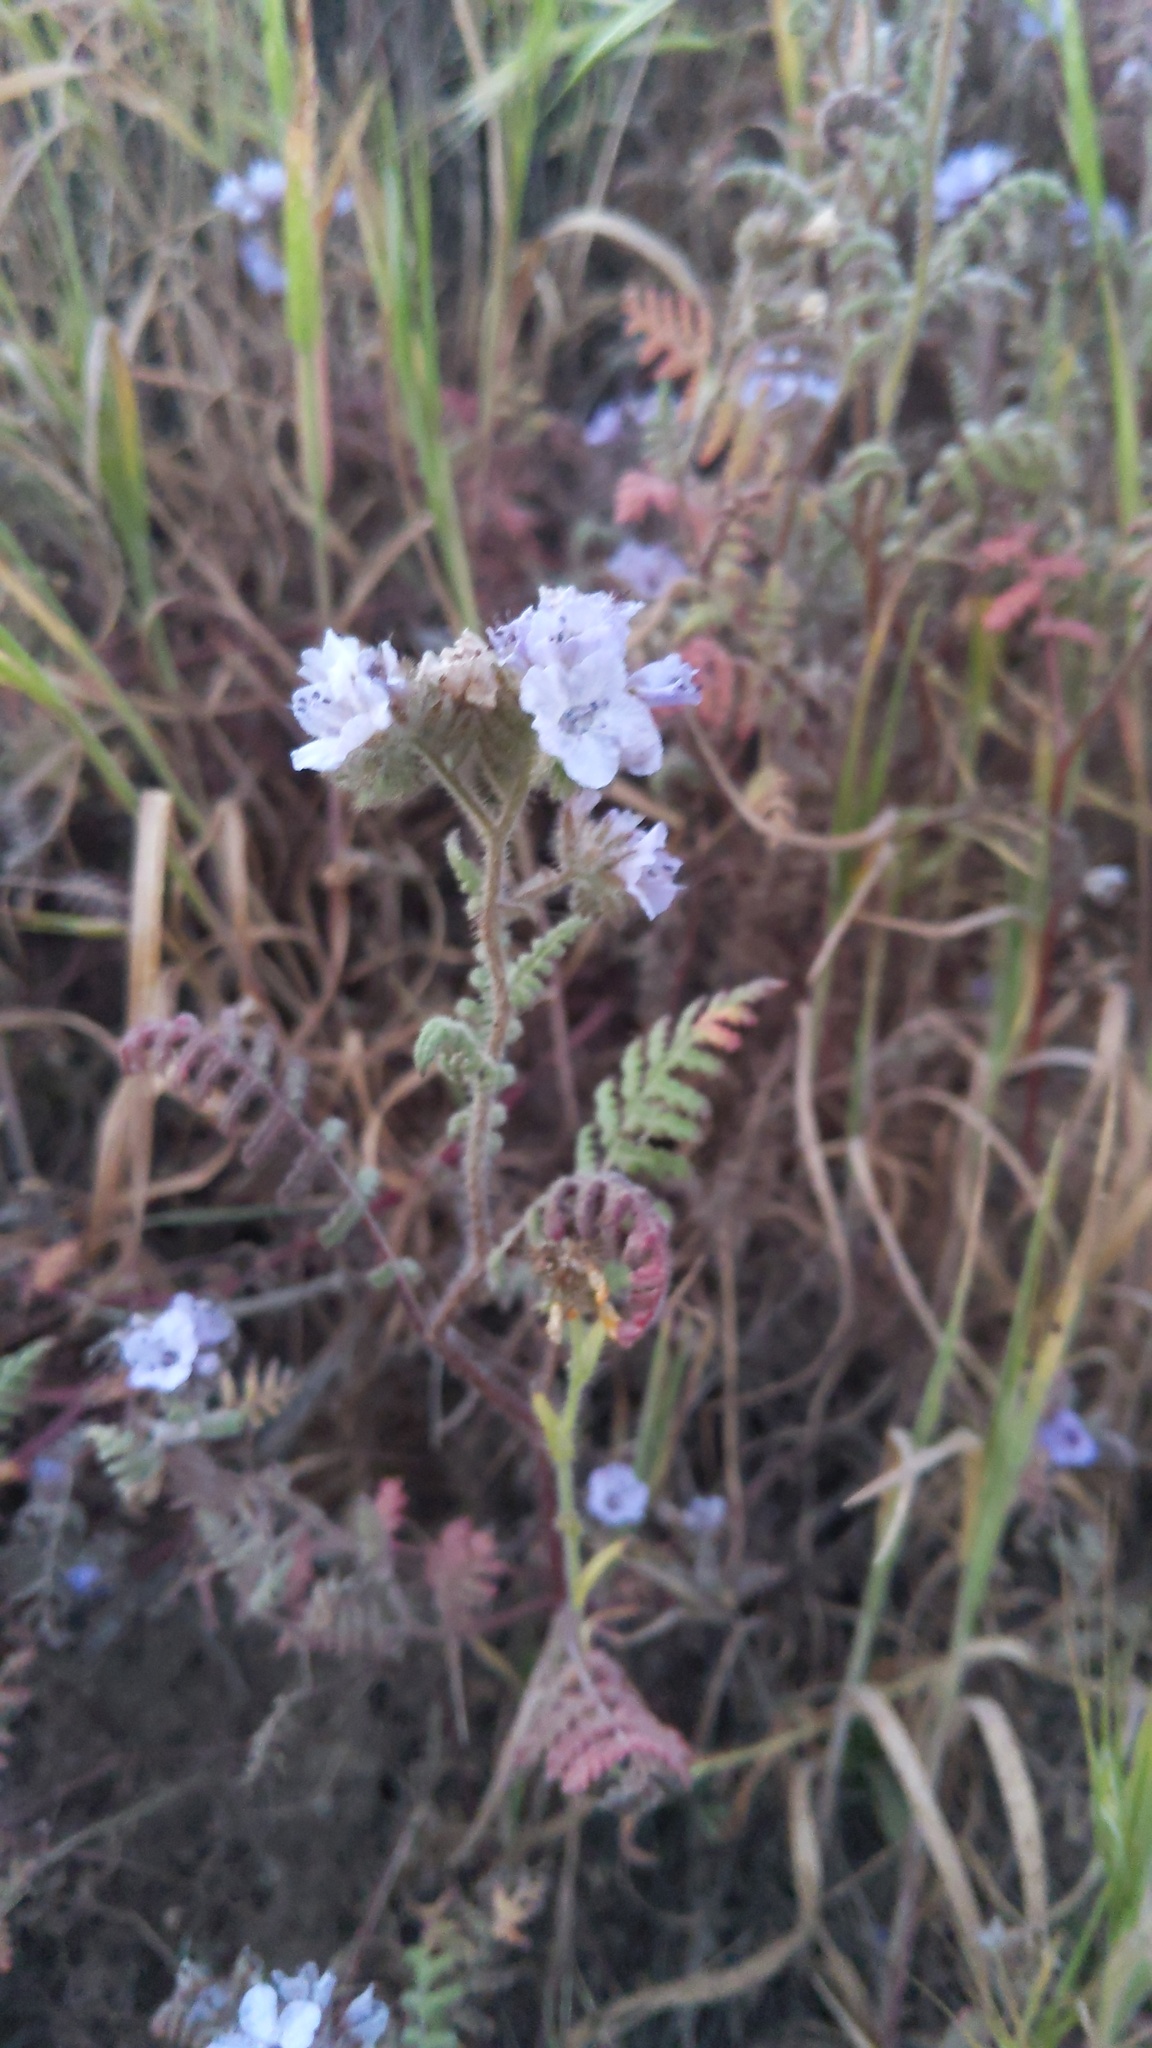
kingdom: Plantae
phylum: Tracheophyta
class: Magnoliopsida
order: Boraginales
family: Hydrophyllaceae
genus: Phacelia
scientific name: Phacelia distans
